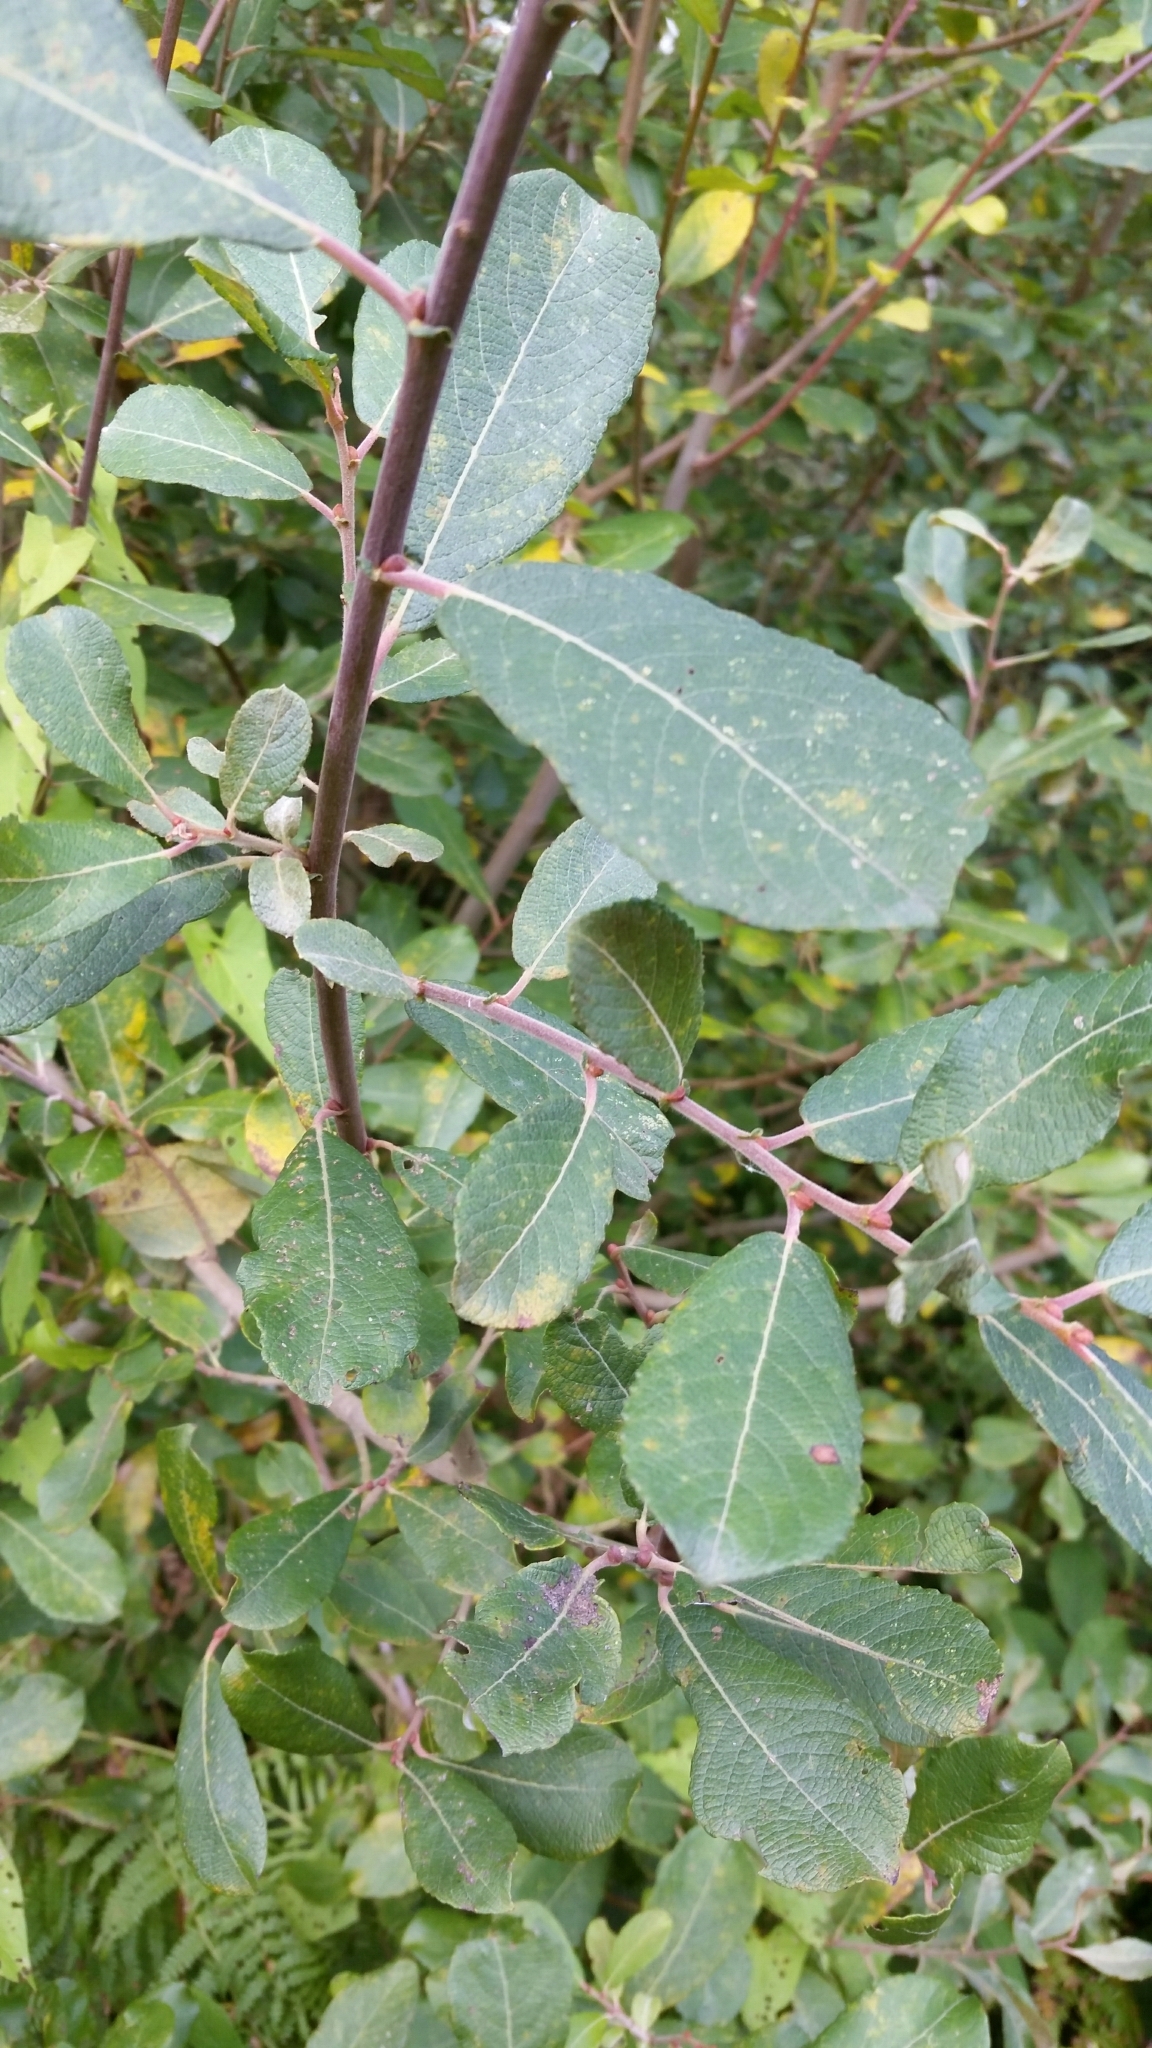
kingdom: Plantae
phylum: Tracheophyta
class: Magnoliopsida
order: Malpighiales
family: Salicaceae
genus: Salix
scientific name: Salix cinerea
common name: Common sallow
